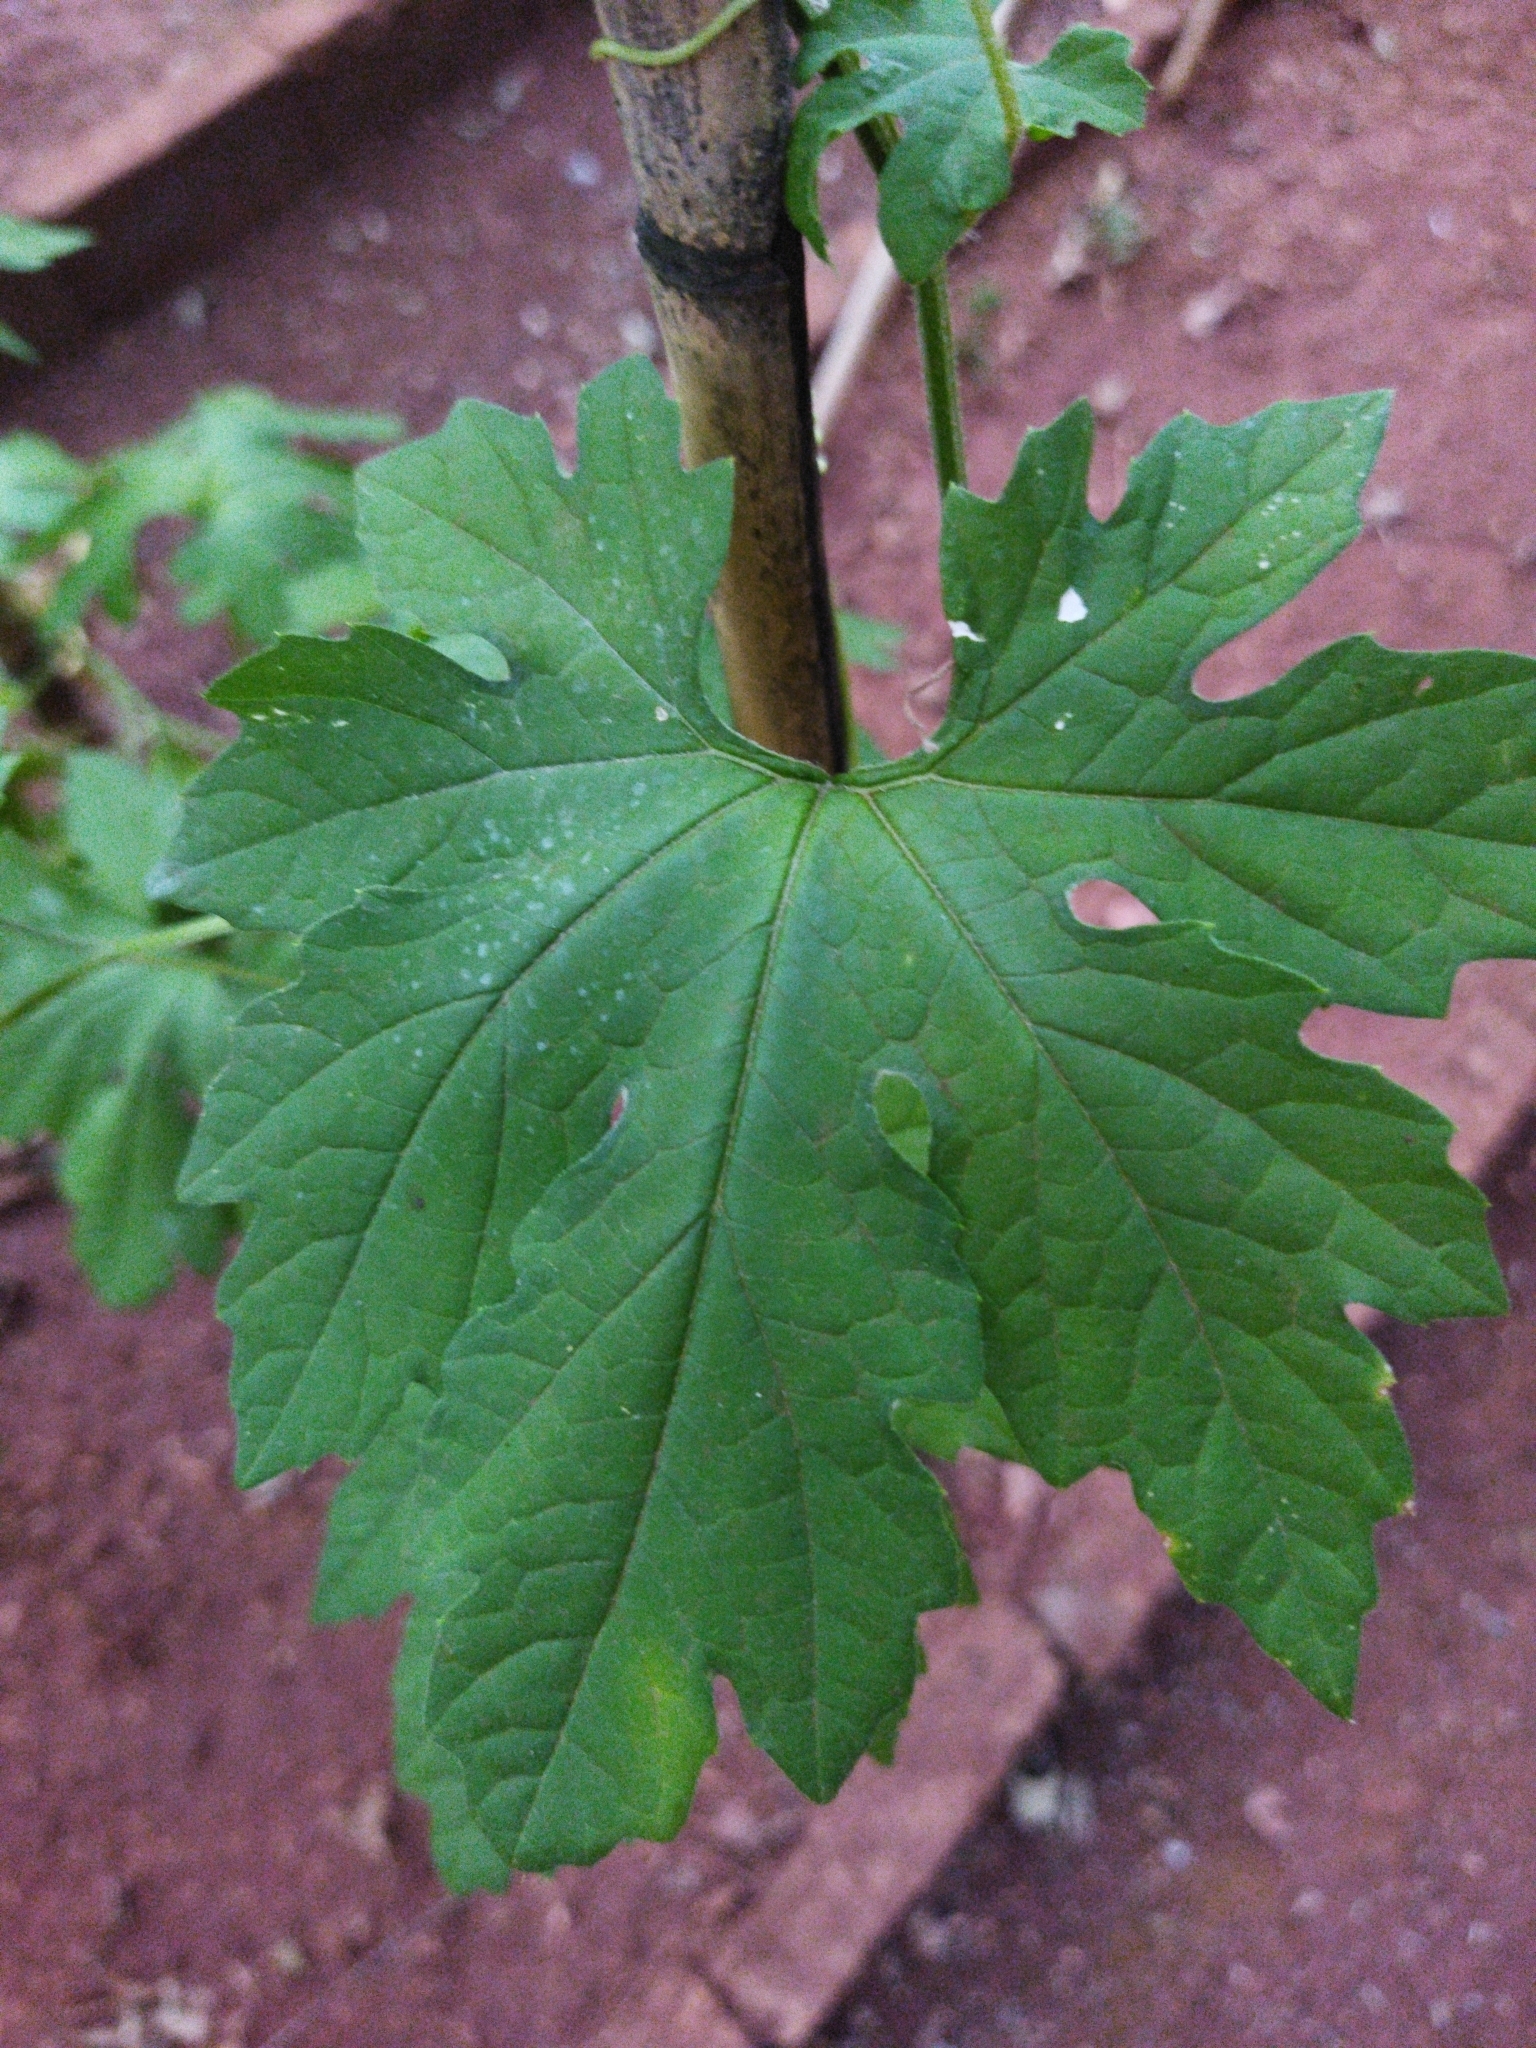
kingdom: Plantae
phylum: Tracheophyta
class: Magnoliopsida
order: Cucurbitales
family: Cucurbitaceae
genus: Momordica
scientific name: Momordica charantia
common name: Balsampear
